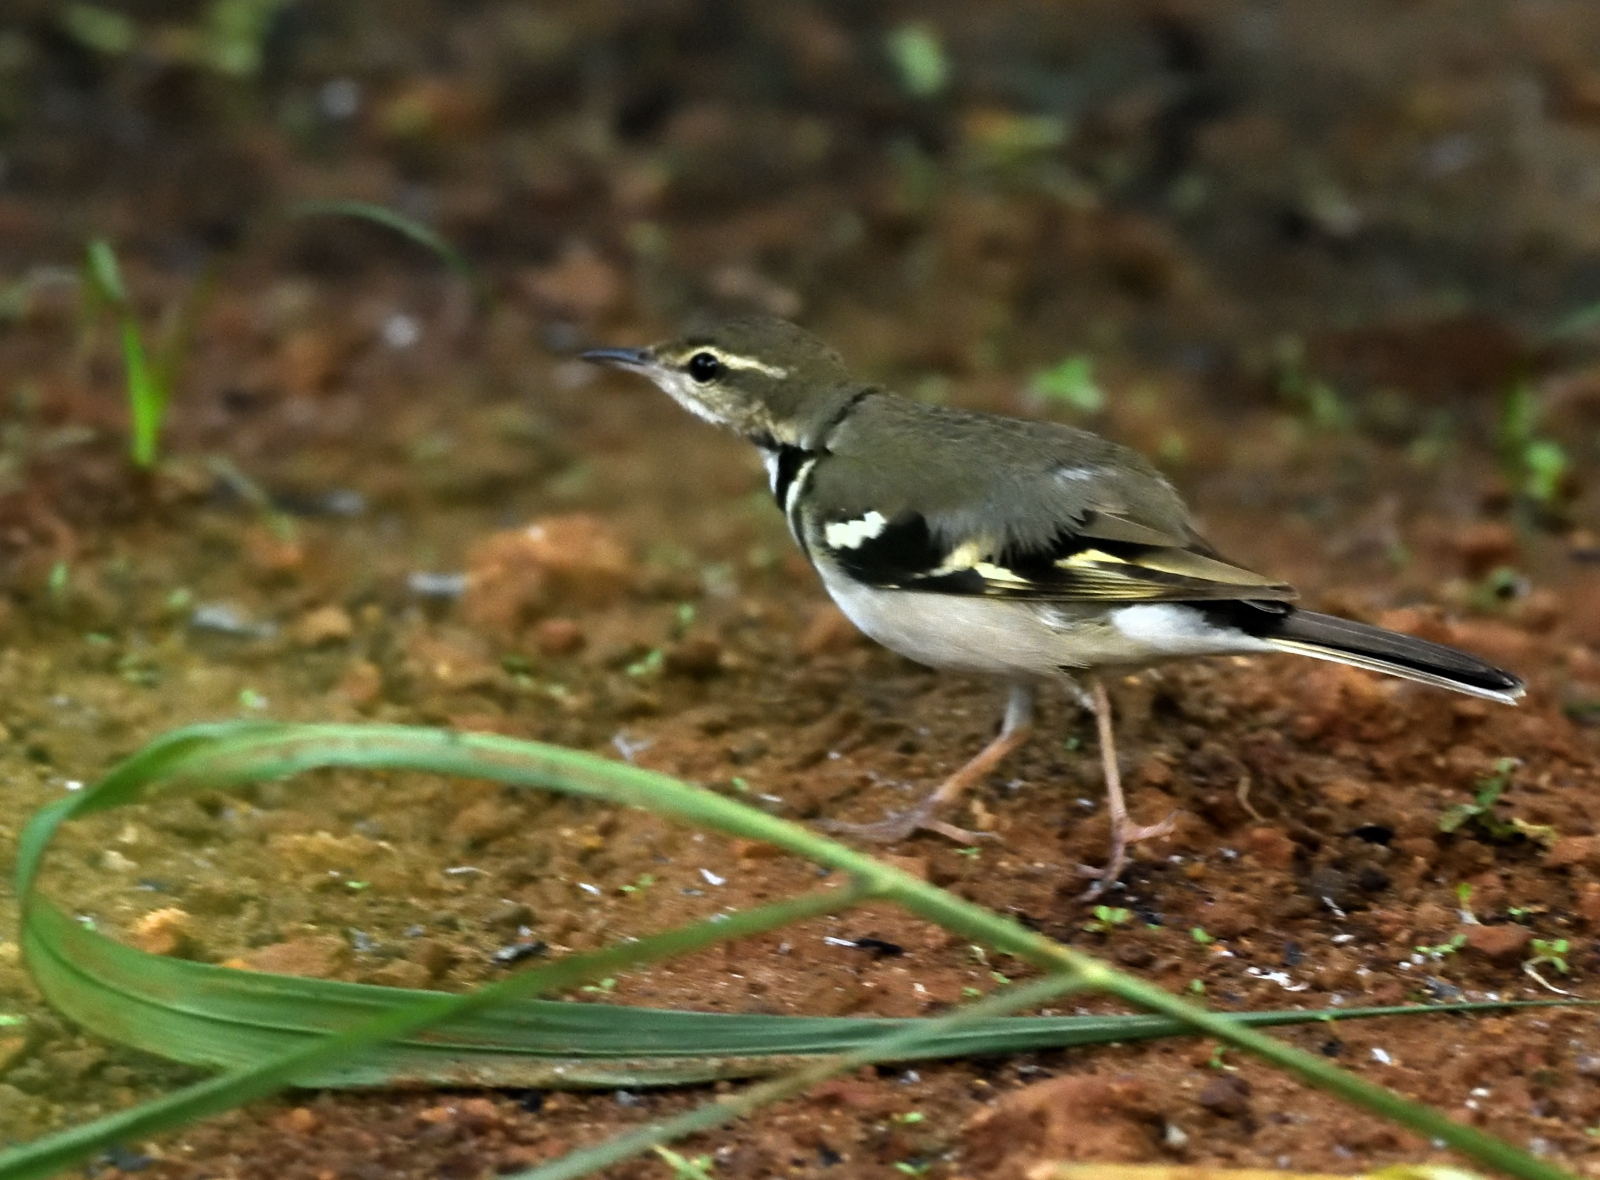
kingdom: Animalia
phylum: Chordata
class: Aves
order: Passeriformes
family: Motacillidae
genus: Dendronanthus
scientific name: Dendronanthus indicus
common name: Forest wagtail
